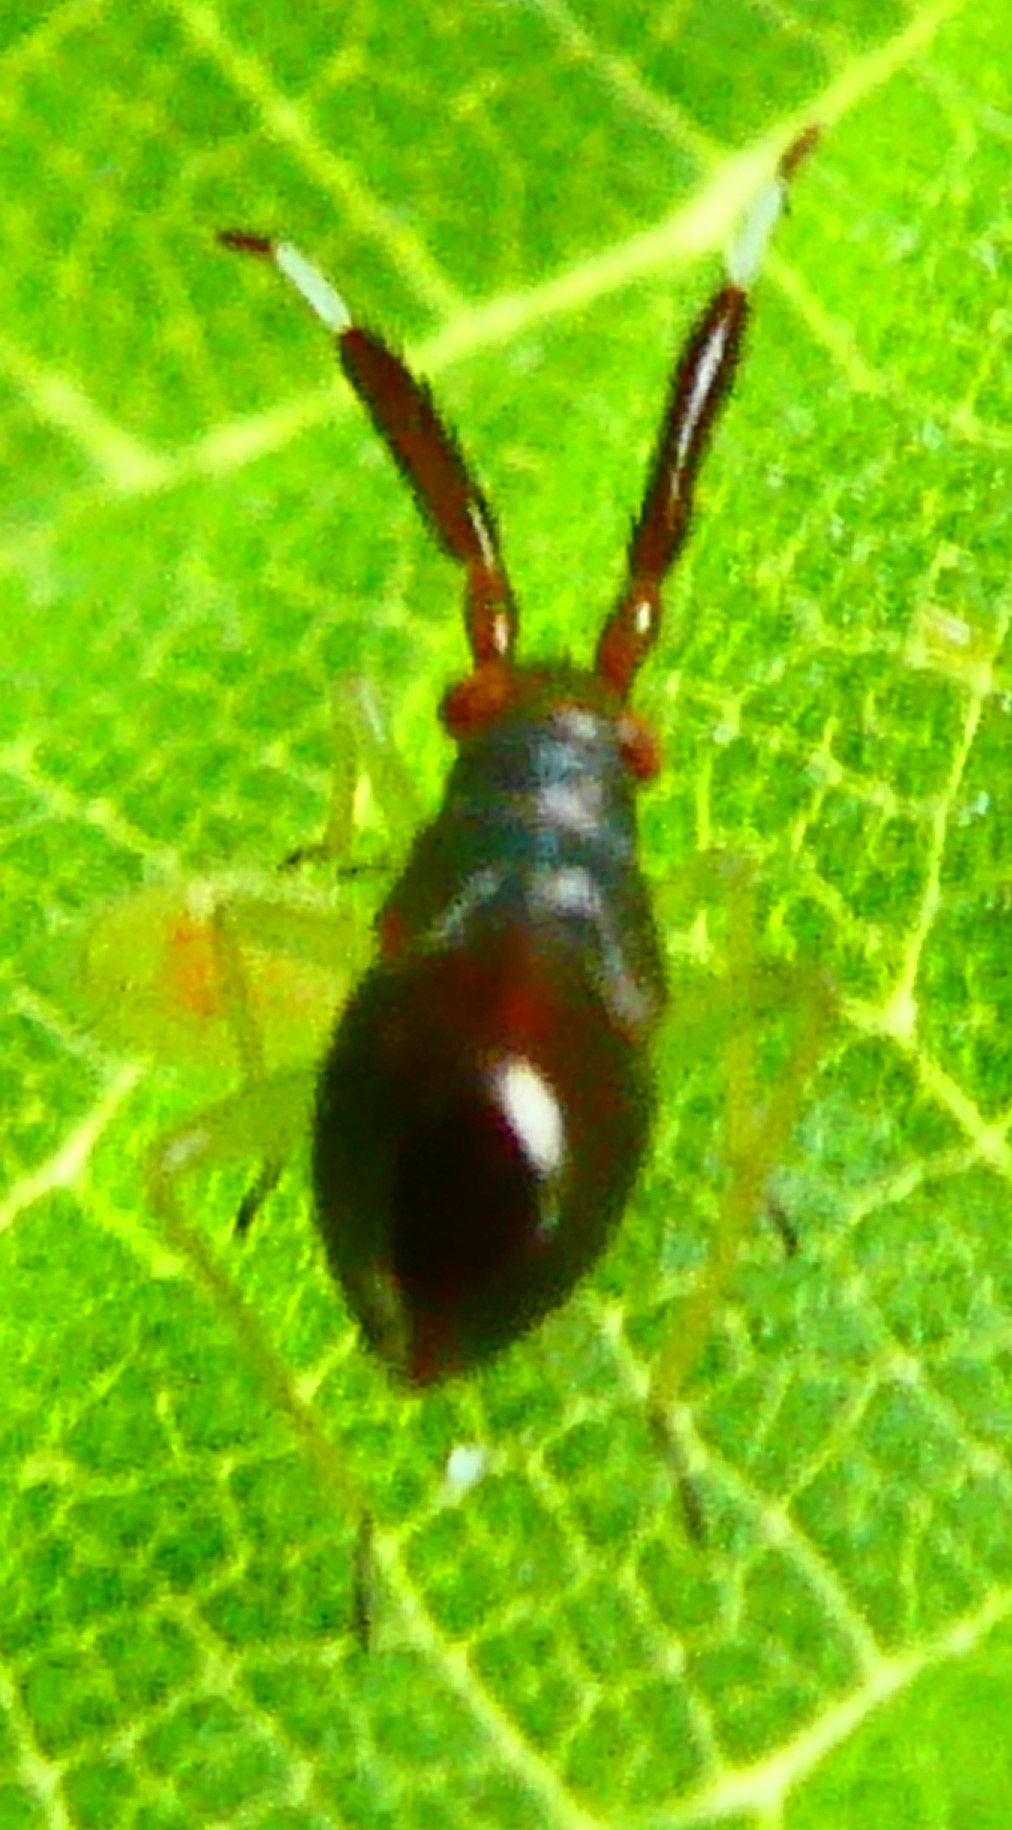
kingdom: Animalia
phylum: Arthropoda
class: Insecta
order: Hemiptera
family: Miridae
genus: Heterotoma
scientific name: Heterotoma planicornis
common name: Plant bug
